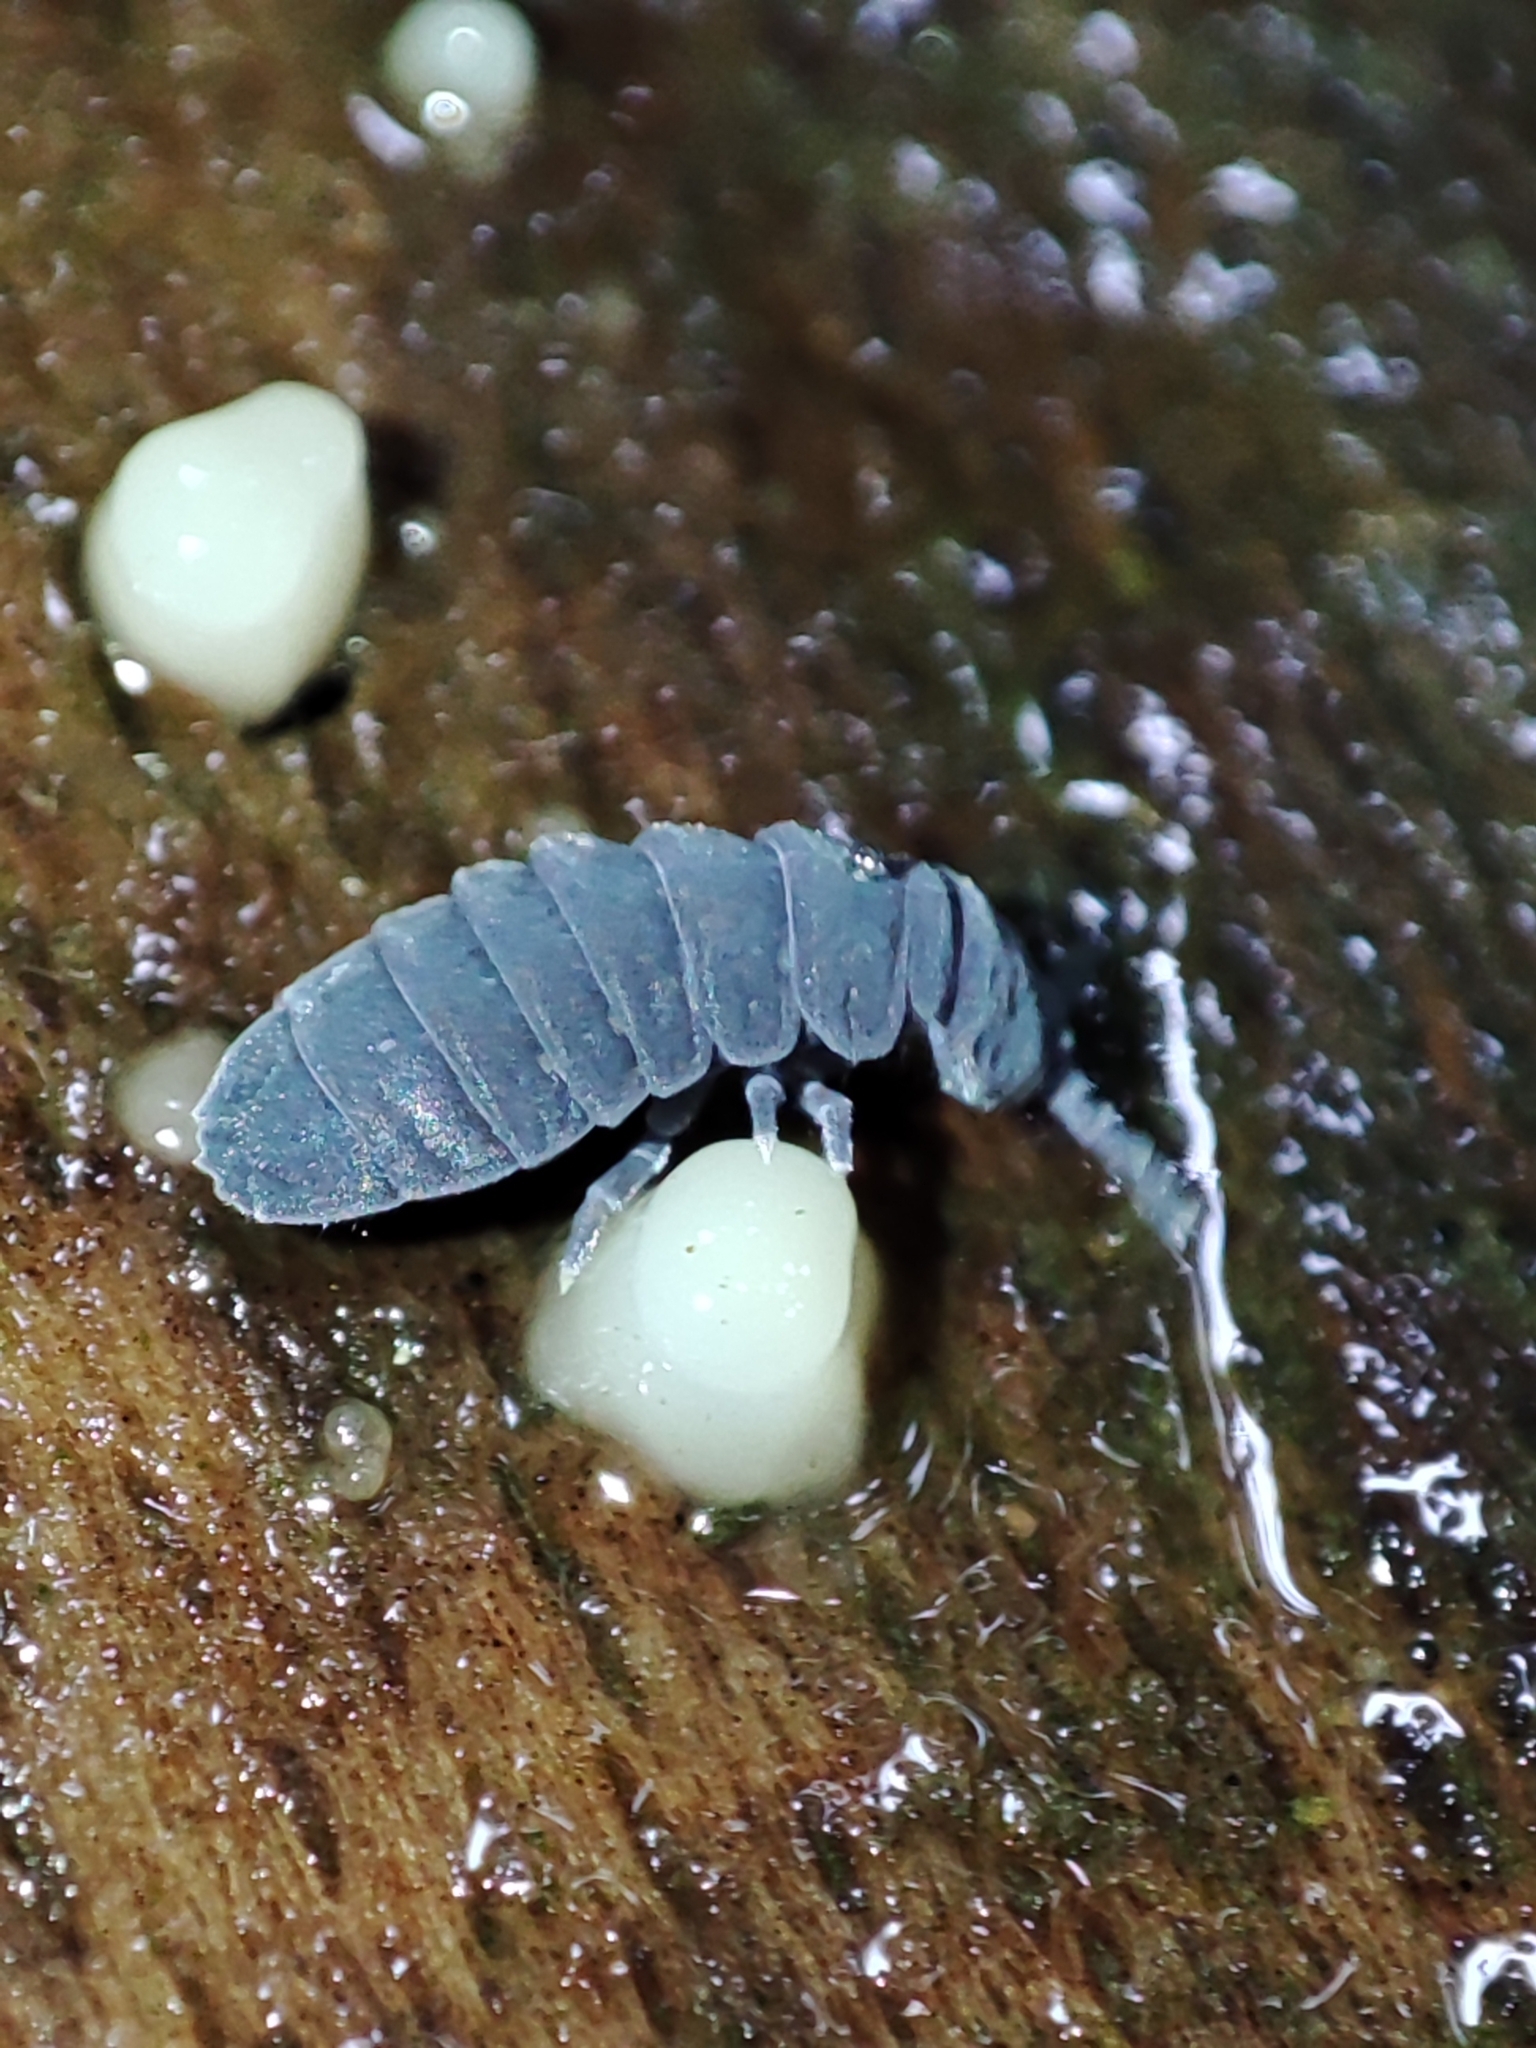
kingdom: Animalia
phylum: Arthropoda
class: Collembola
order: Poduromorpha
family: Onychiuridae
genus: Tetrodontophora
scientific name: Tetrodontophora bielanensis
